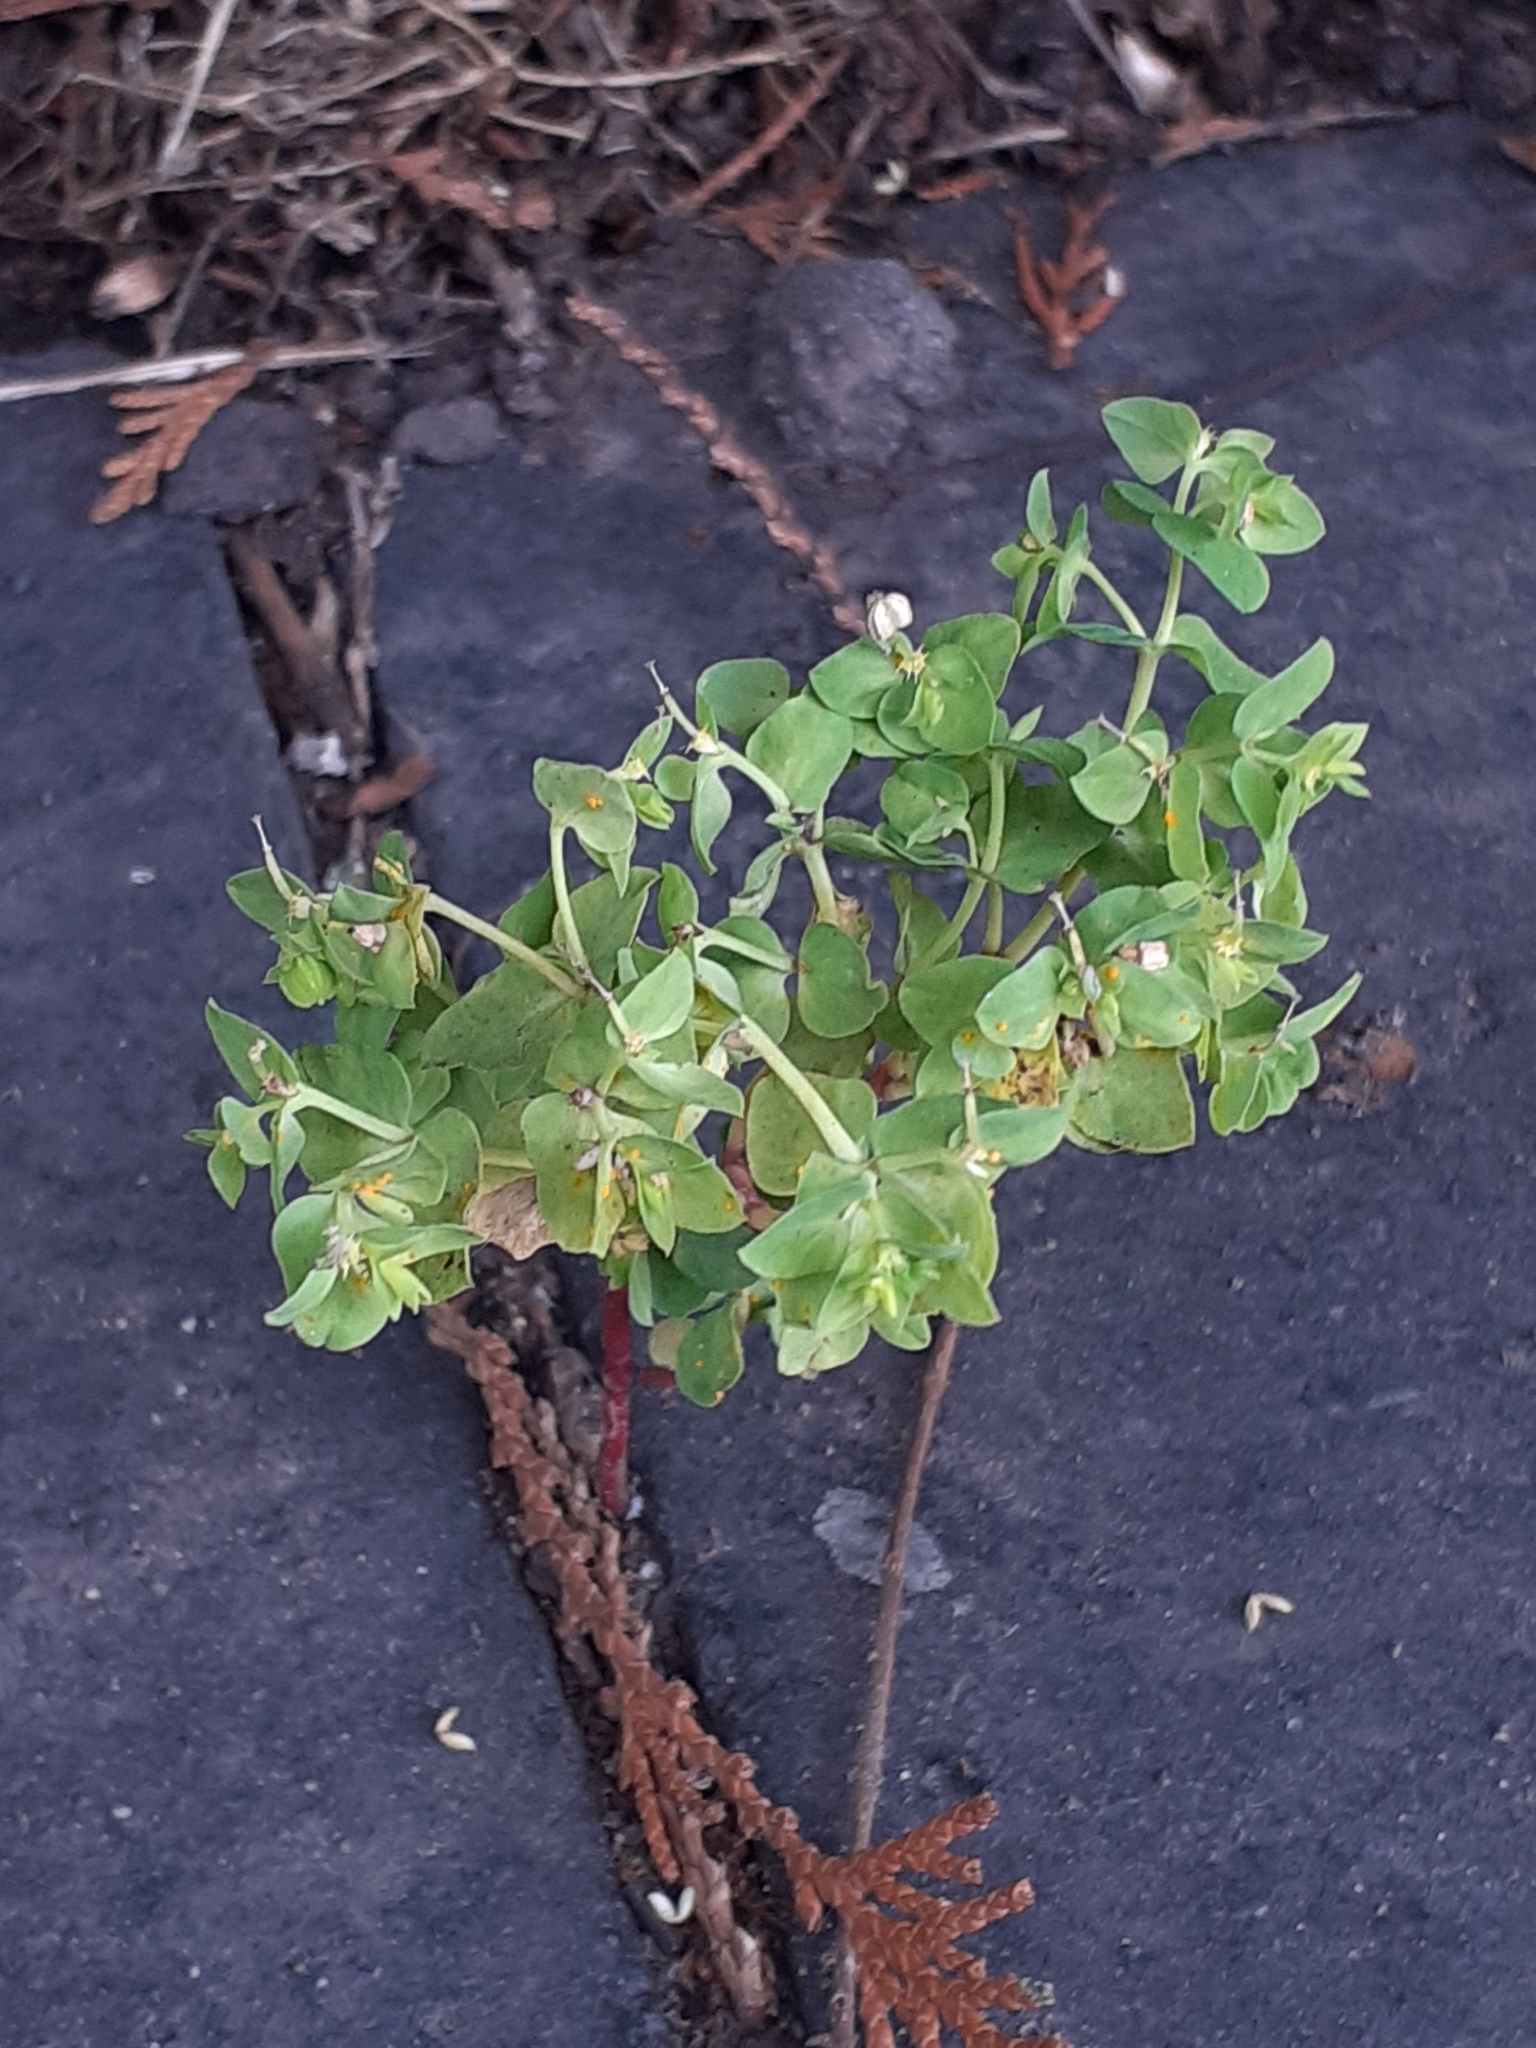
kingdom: Plantae
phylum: Tracheophyta
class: Magnoliopsida
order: Malpighiales
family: Euphorbiaceae
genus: Euphorbia
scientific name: Euphorbia peplus
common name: Petty spurge
